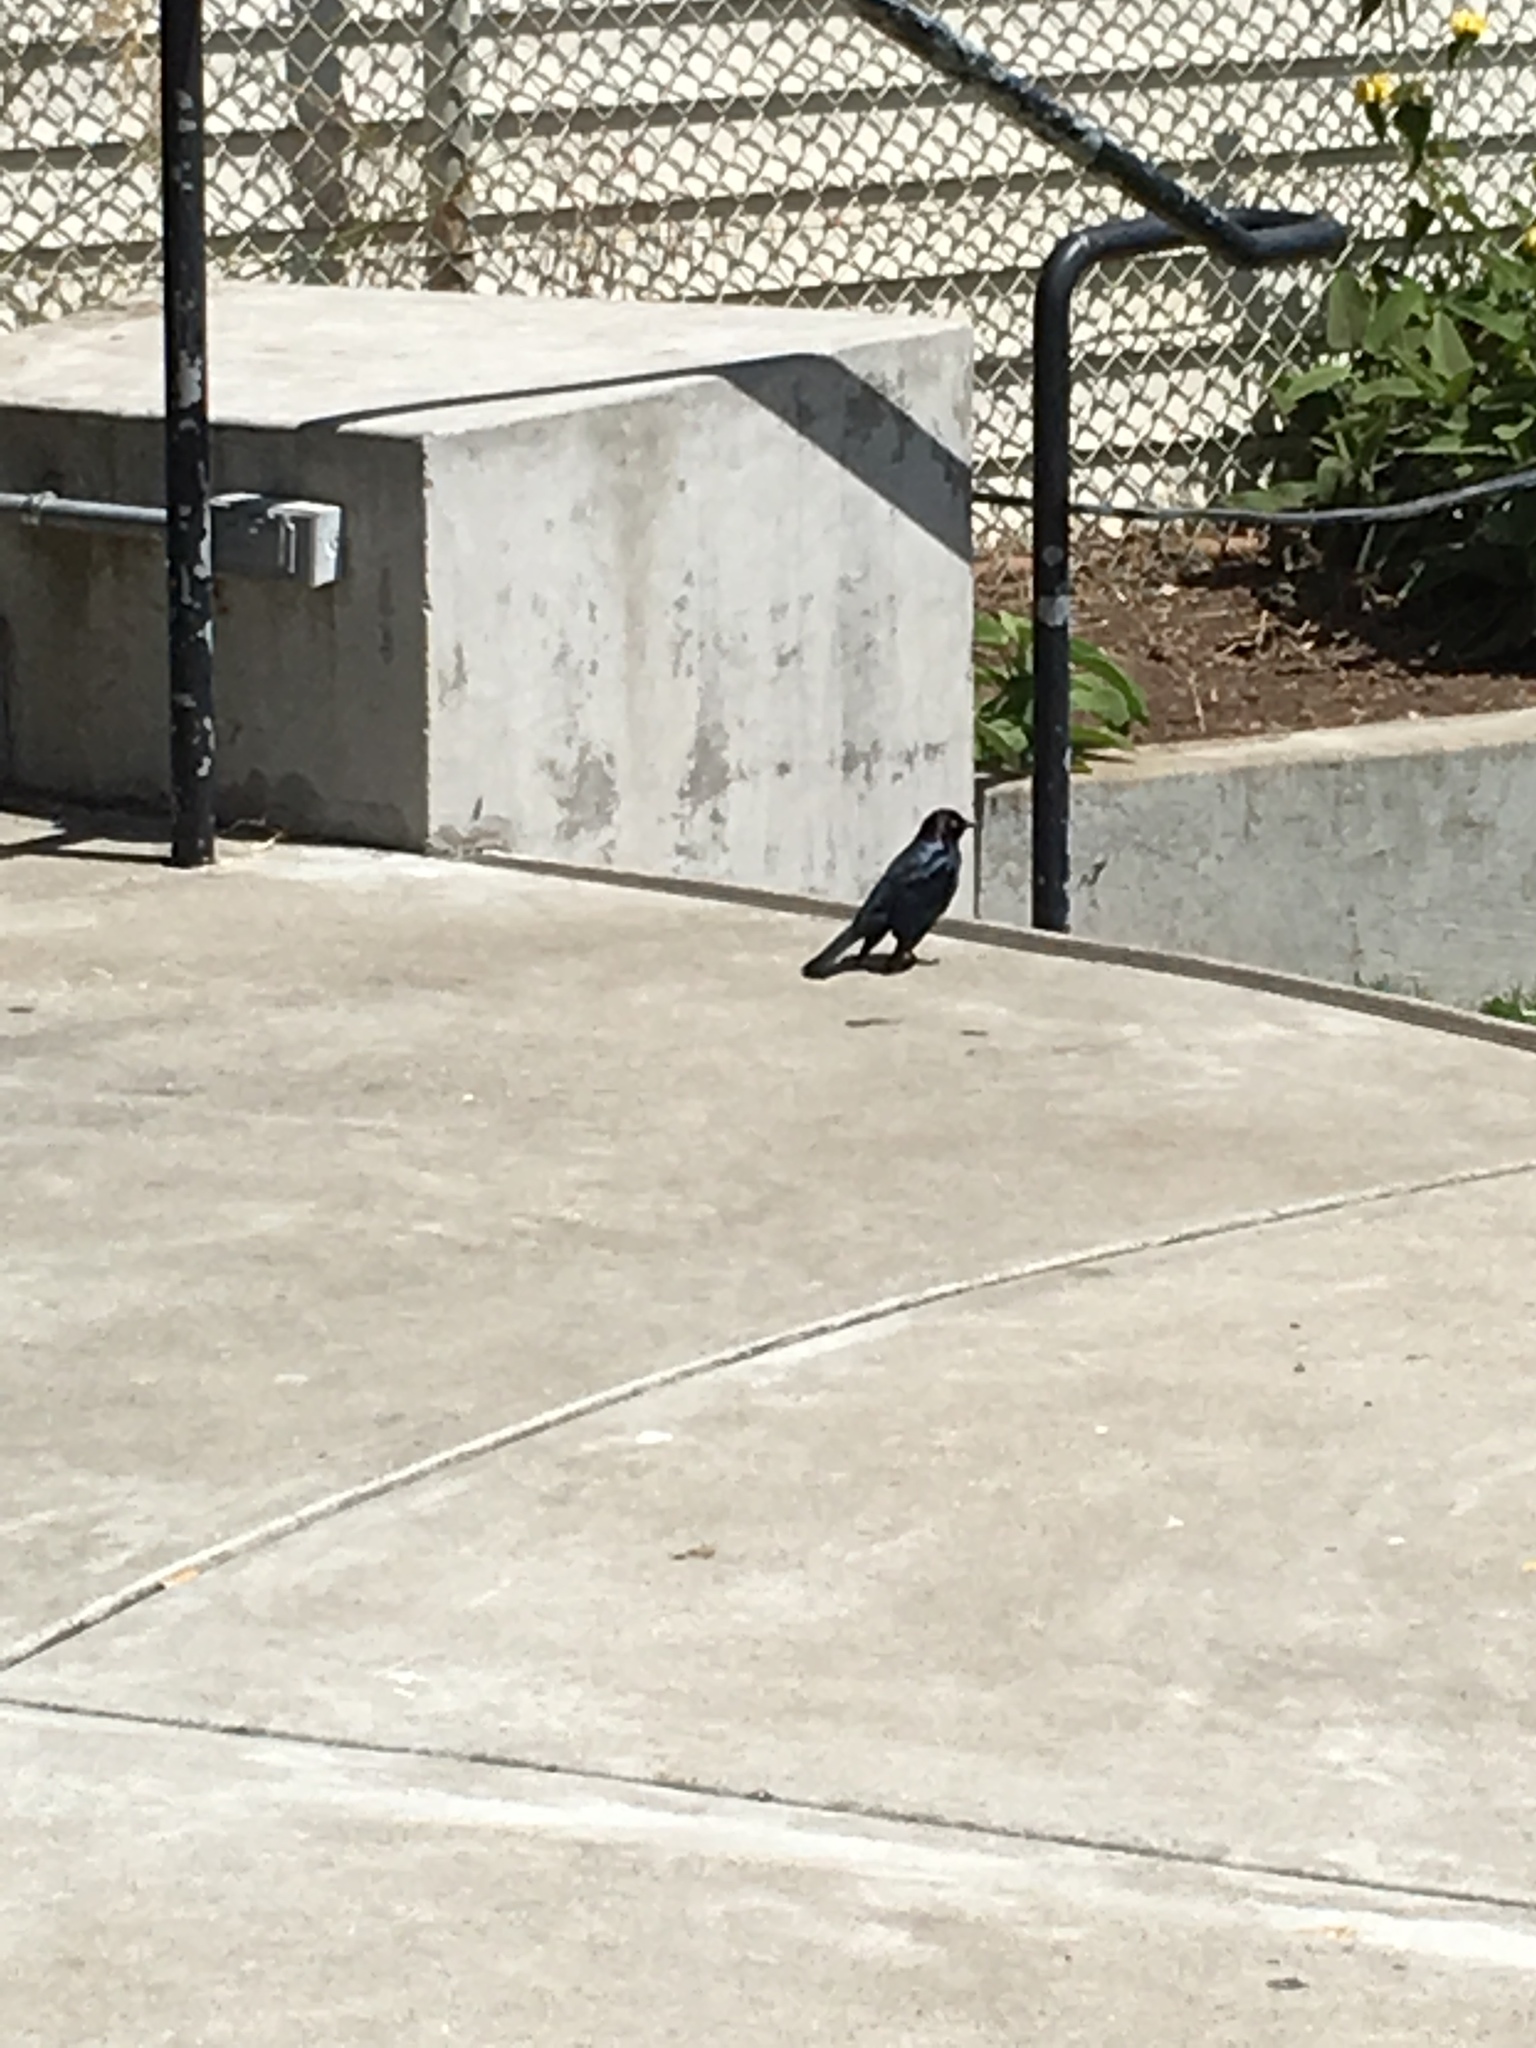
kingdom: Animalia
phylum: Chordata
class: Aves
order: Passeriformes
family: Icteridae
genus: Euphagus
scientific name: Euphagus cyanocephalus
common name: Brewer's blackbird
